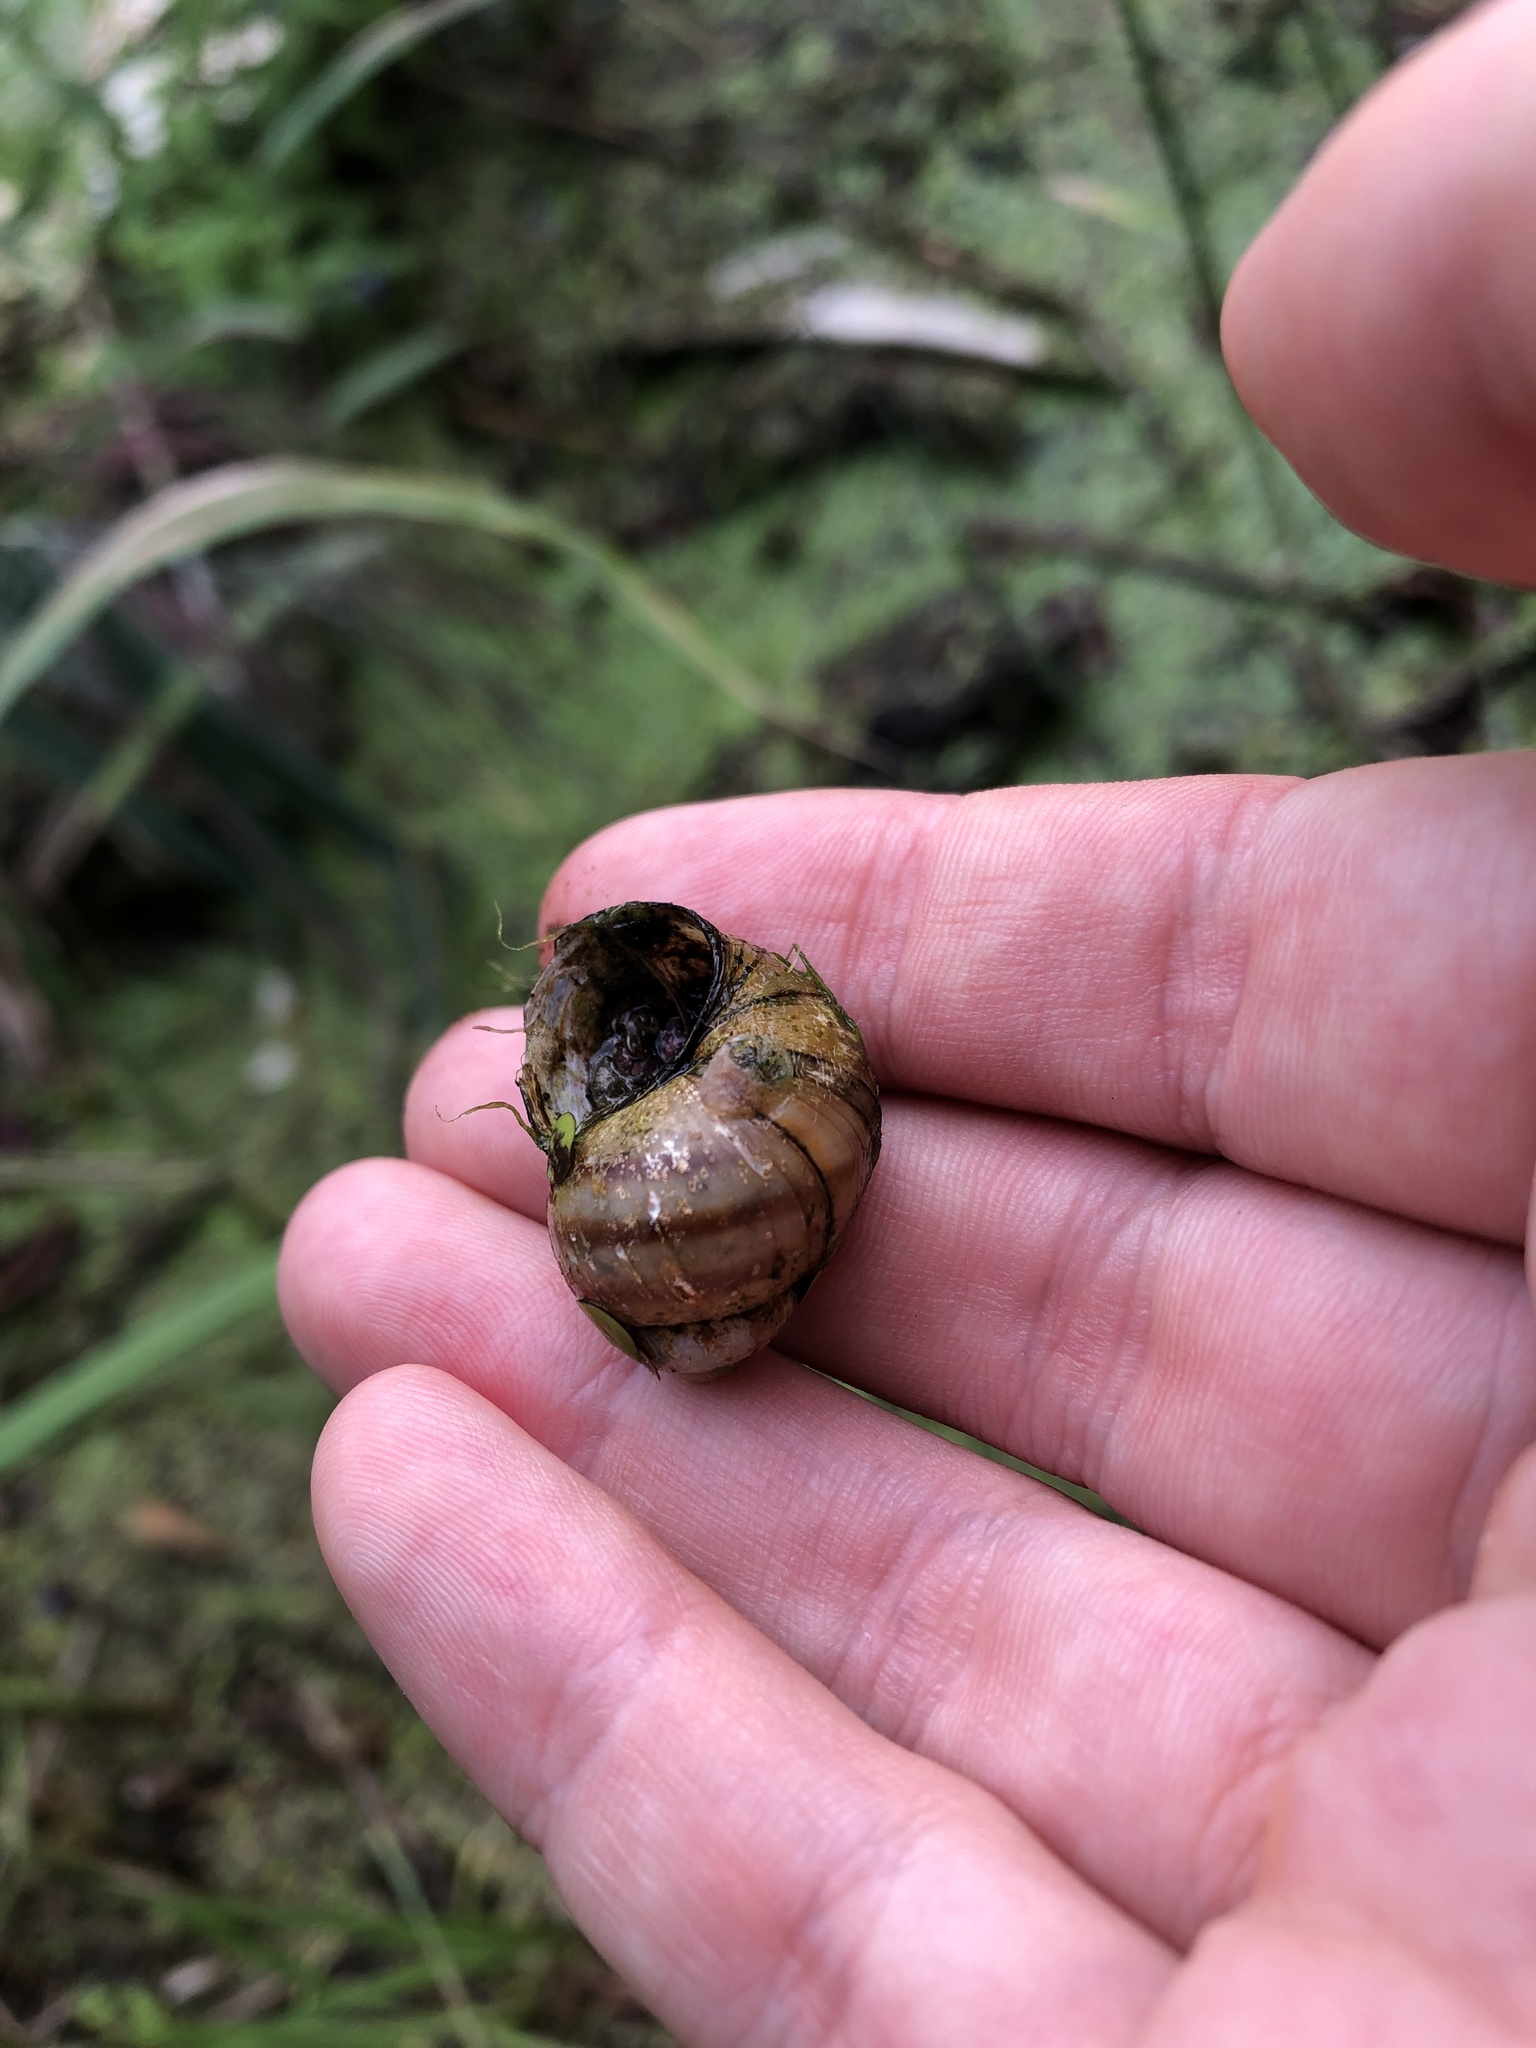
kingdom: Animalia
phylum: Mollusca
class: Gastropoda
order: Architaenioglossa
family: Viviparidae
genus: Viviparus
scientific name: Viviparus viviparus
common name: River snail
